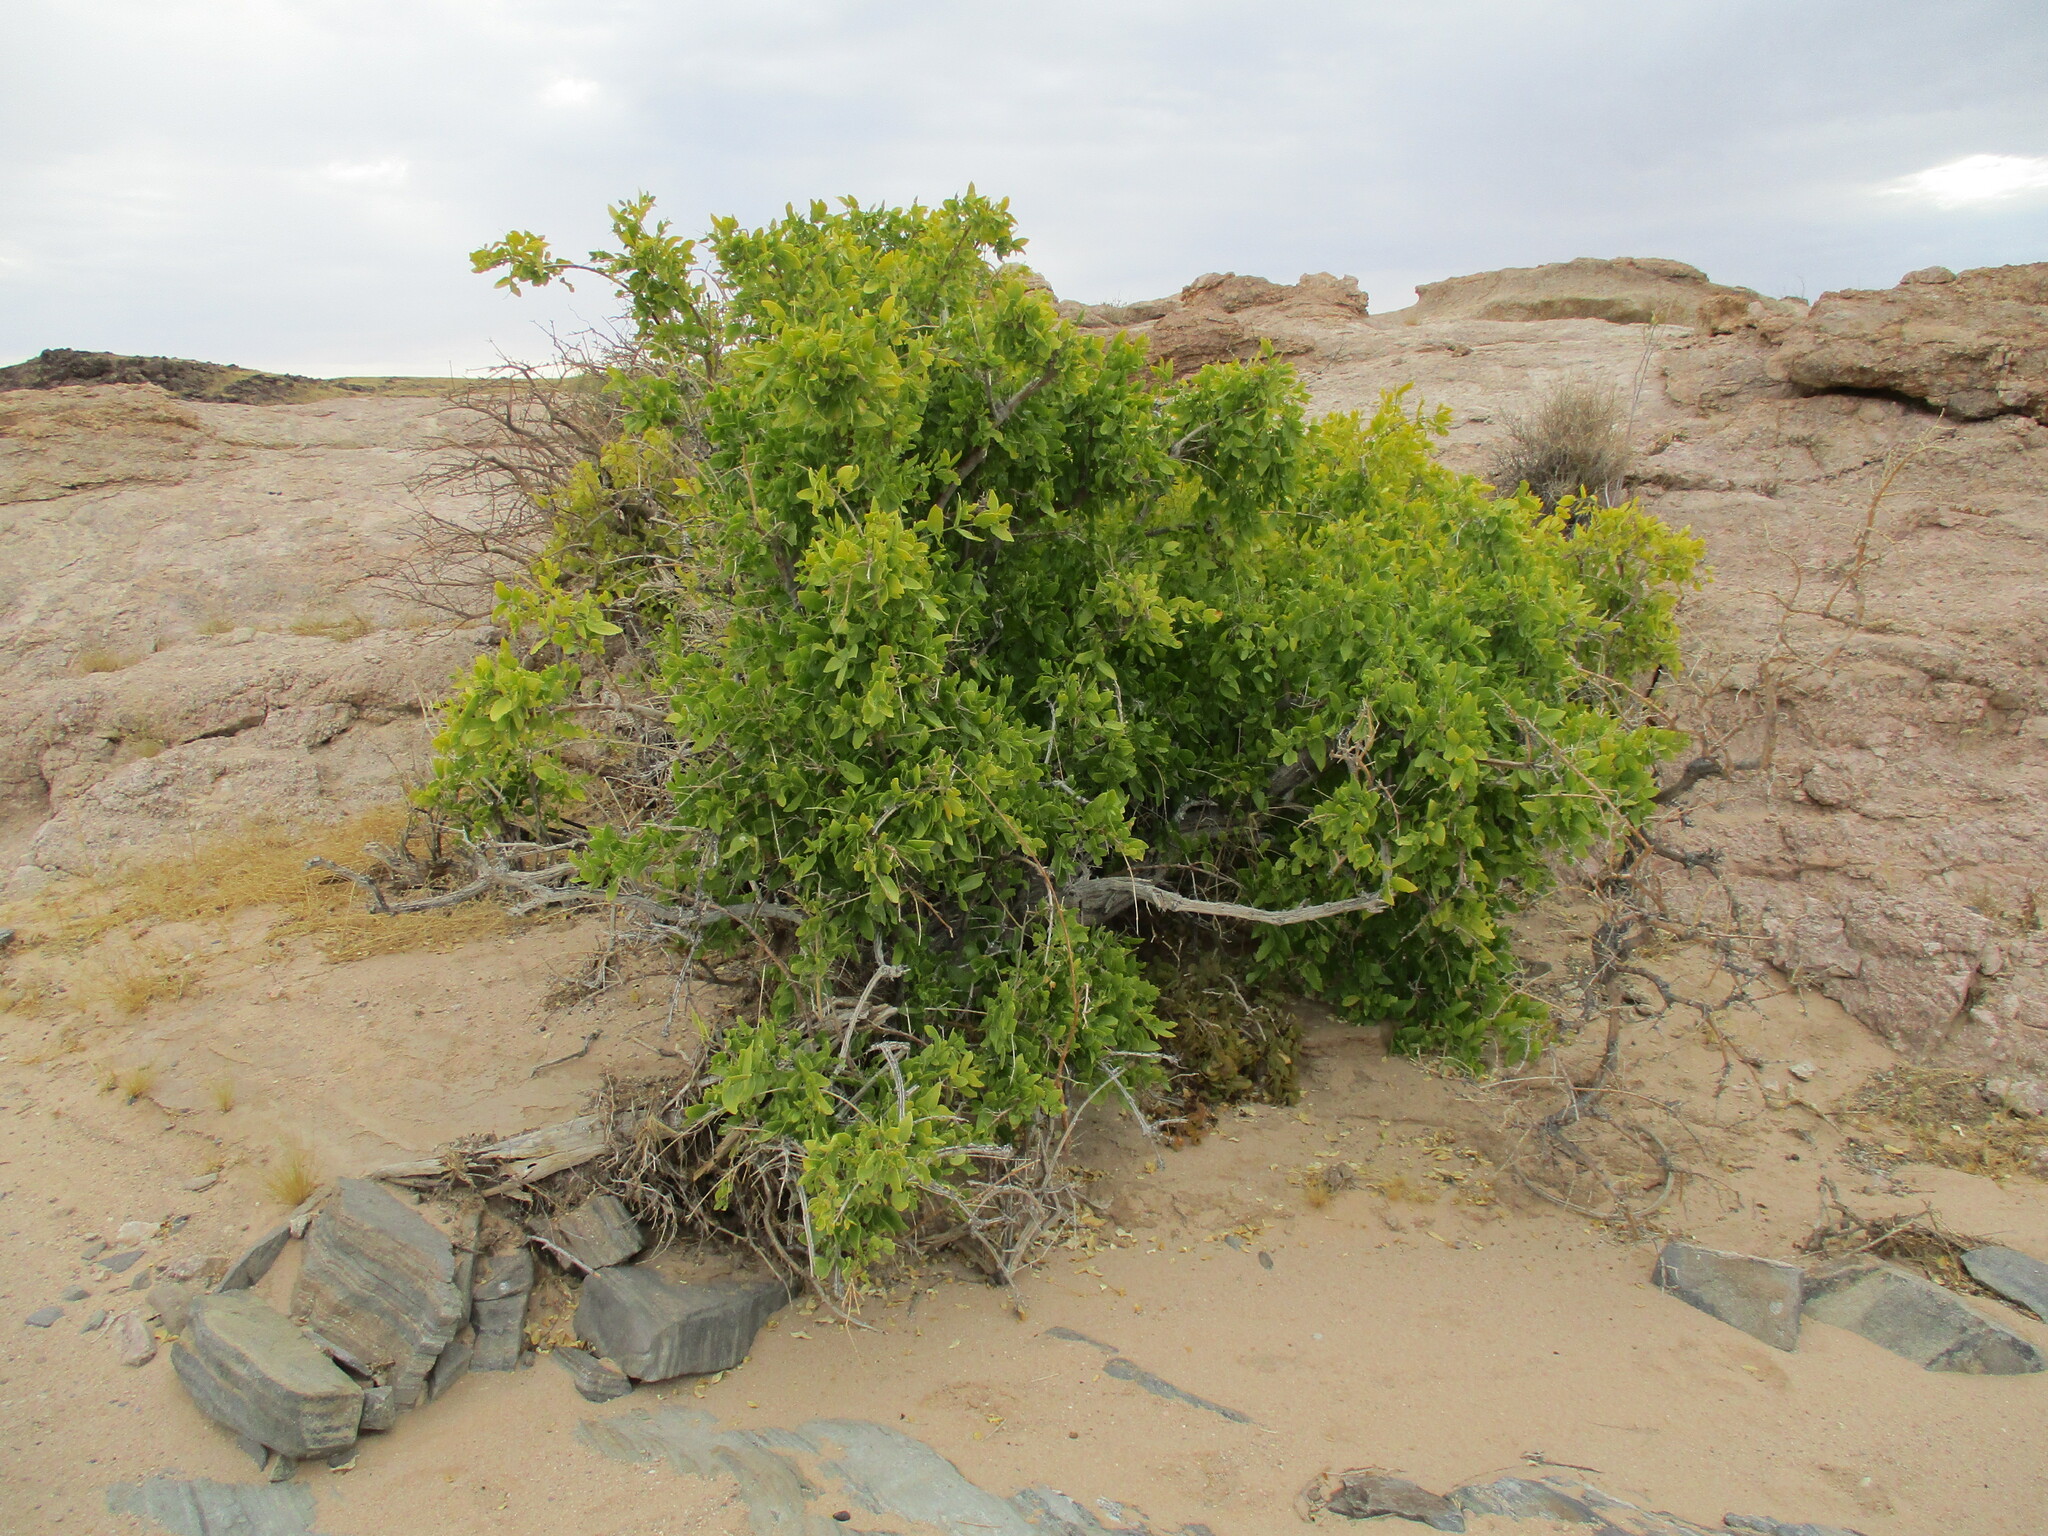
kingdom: Plantae
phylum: Tracheophyta
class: Magnoliopsida
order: Brassicales
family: Salvadoraceae
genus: Salvadora
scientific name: Salvadora persica
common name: Toothbrushtree
